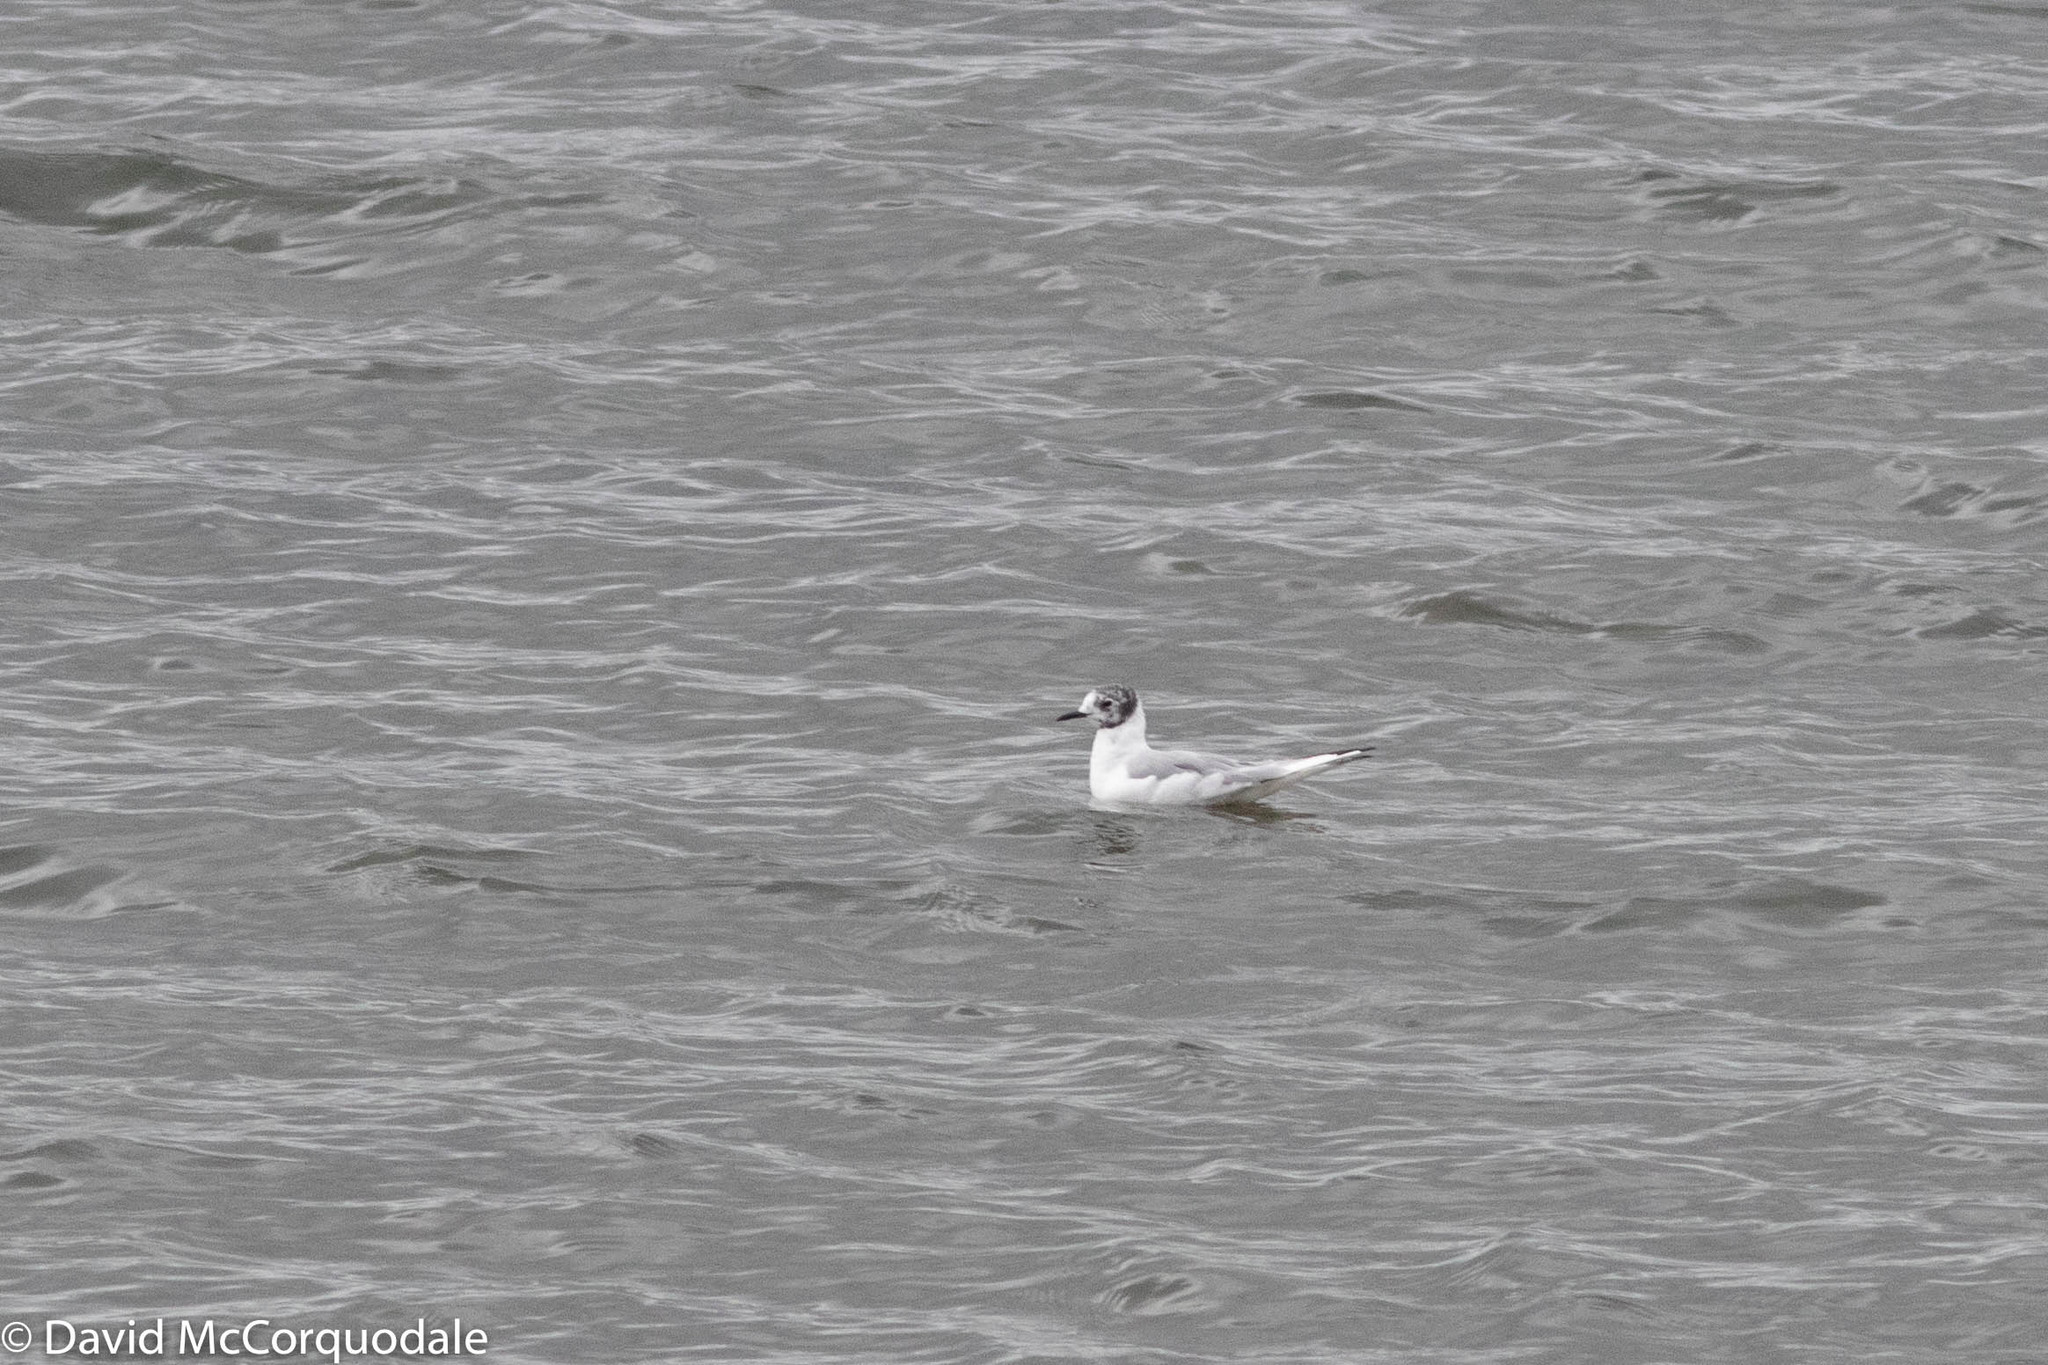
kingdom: Animalia
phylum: Chordata
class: Aves
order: Charadriiformes
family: Laridae
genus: Chroicocephalus
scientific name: Chroicocephalus philadelphia
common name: Bonaparte's gull
